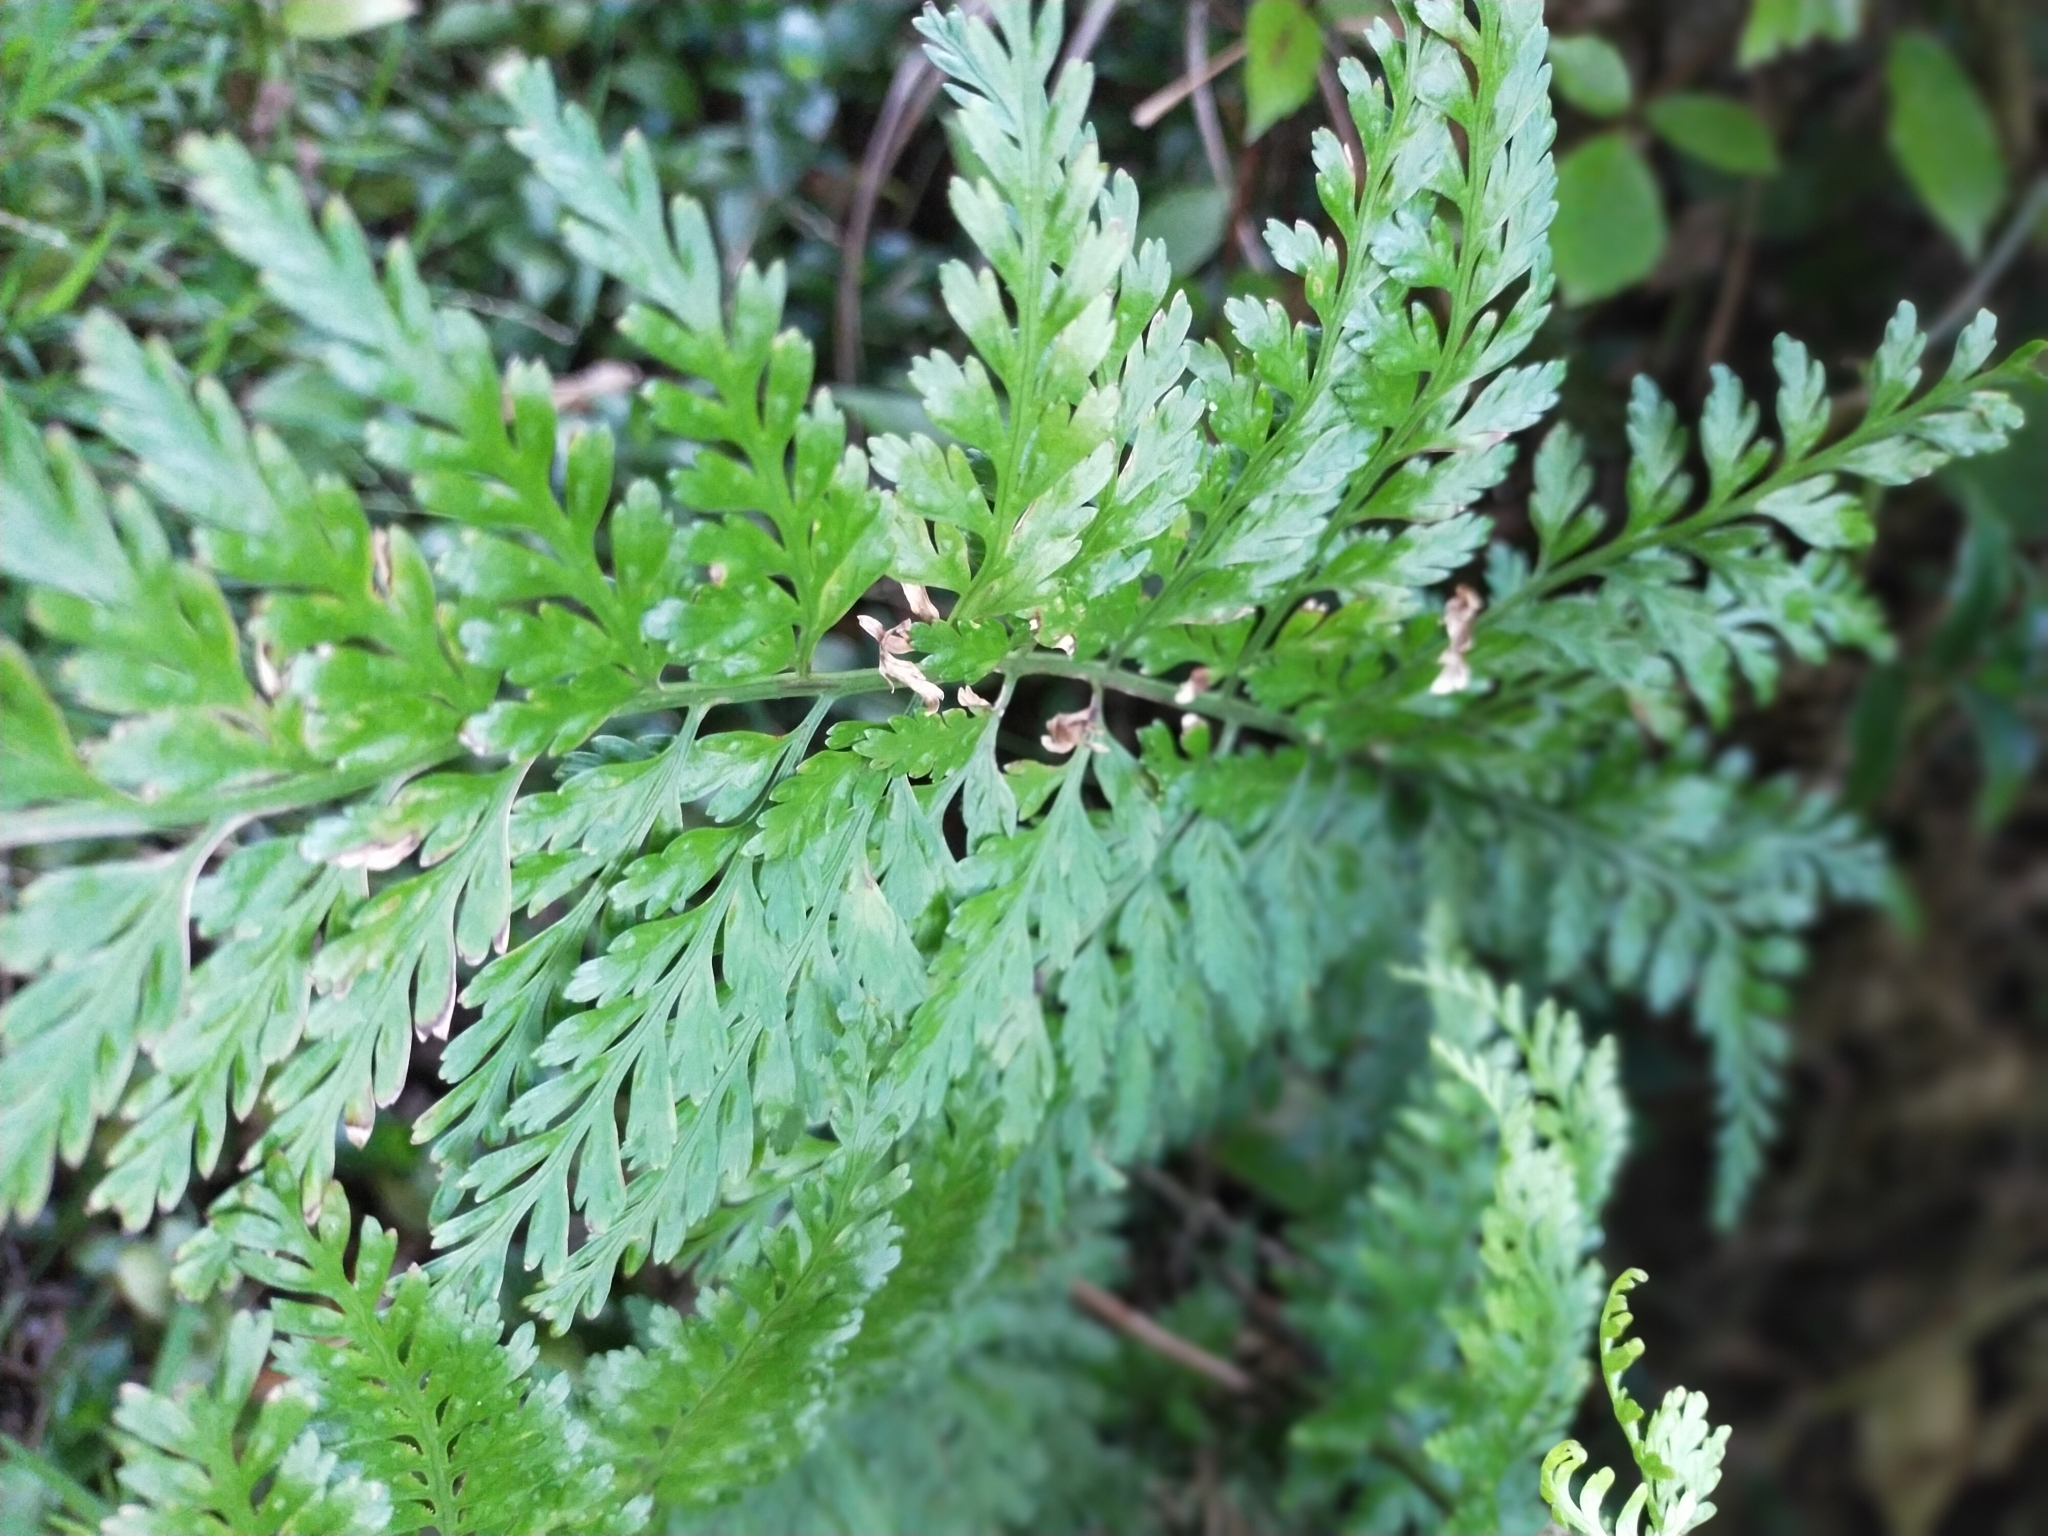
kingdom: Plantae
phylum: Tracheophyta
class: Polypodiopsida
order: Polypodiales
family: Aspleniaceae
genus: Asplenium
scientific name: Asplenium
